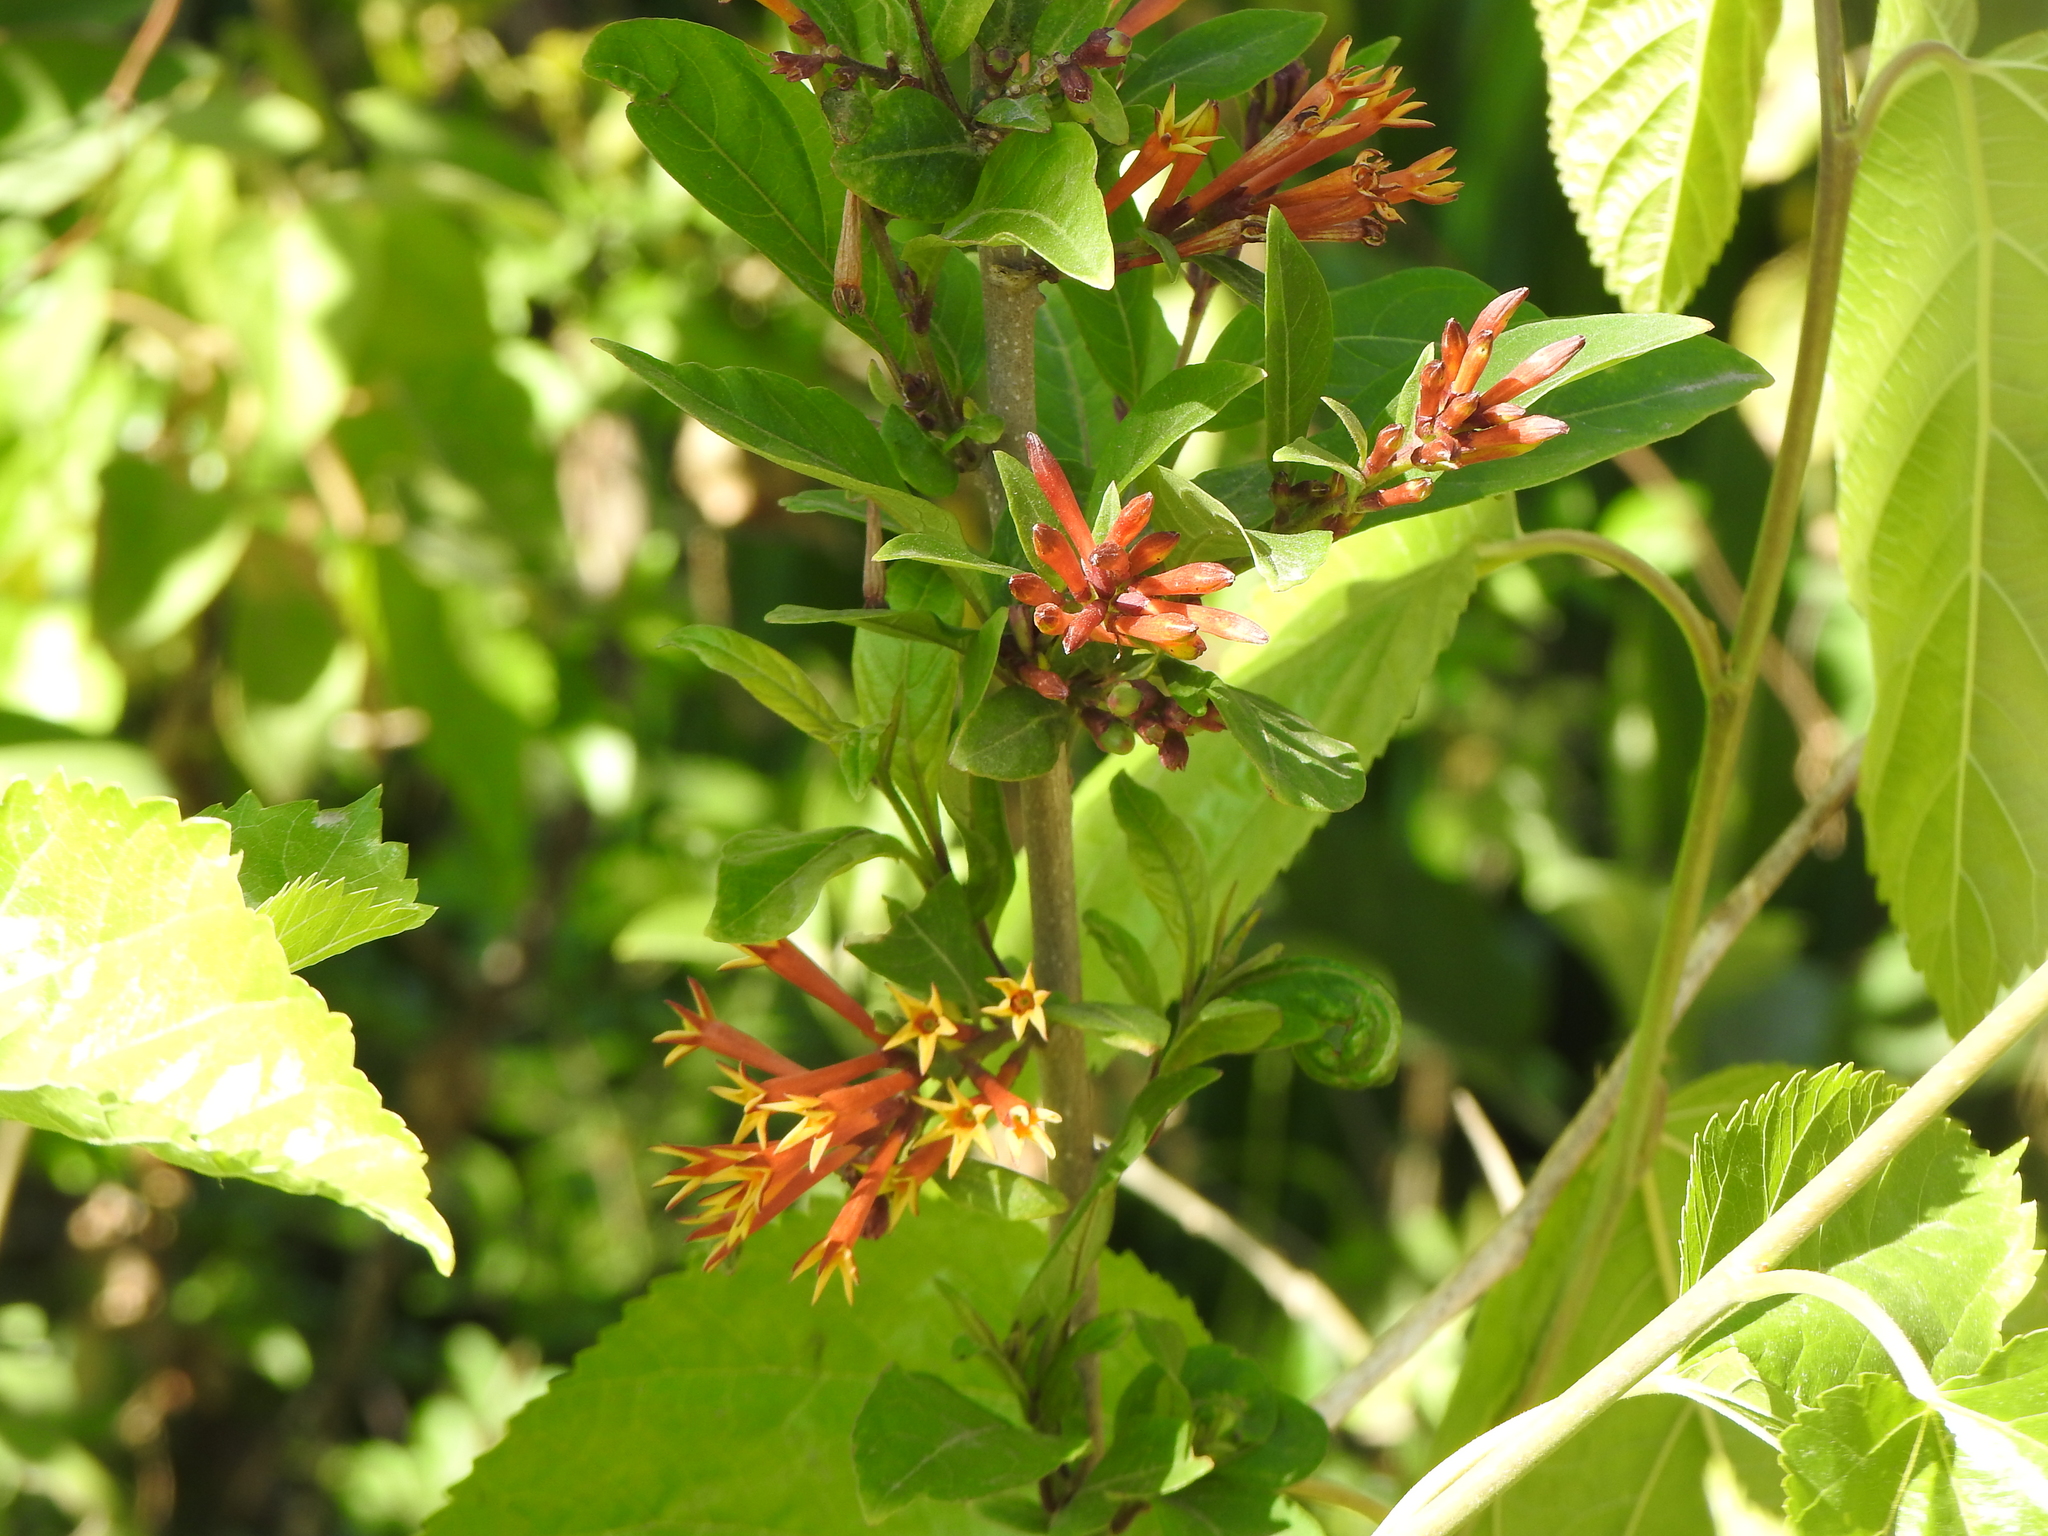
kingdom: Plantae
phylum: Tracheophyta
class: Magnoliopsida
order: Solanales
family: Solanaceae
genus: Cestrum
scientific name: Cestrum parqui
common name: Chilean cestrum
